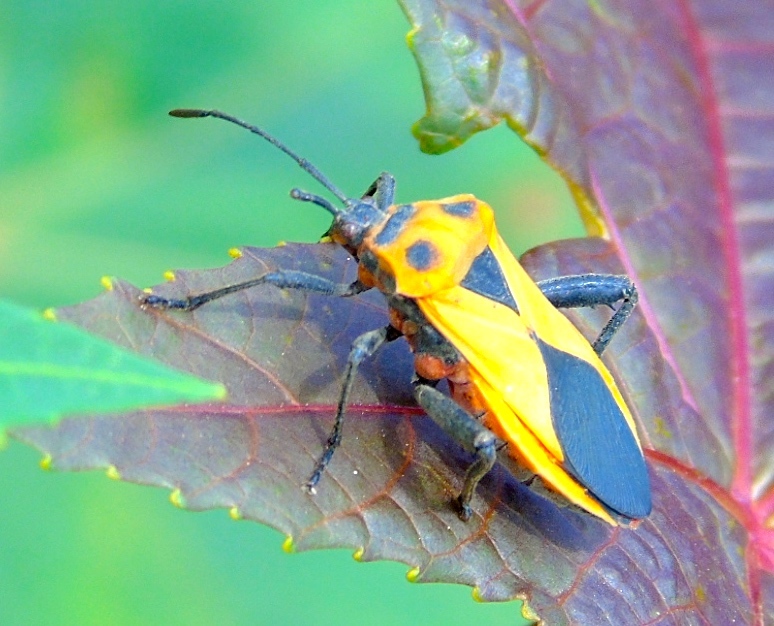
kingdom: Animalia
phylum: Arthropoda
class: Insecta
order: Hemiptera
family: Coreidae
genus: Sagotylus
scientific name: Sagotylus confluens
